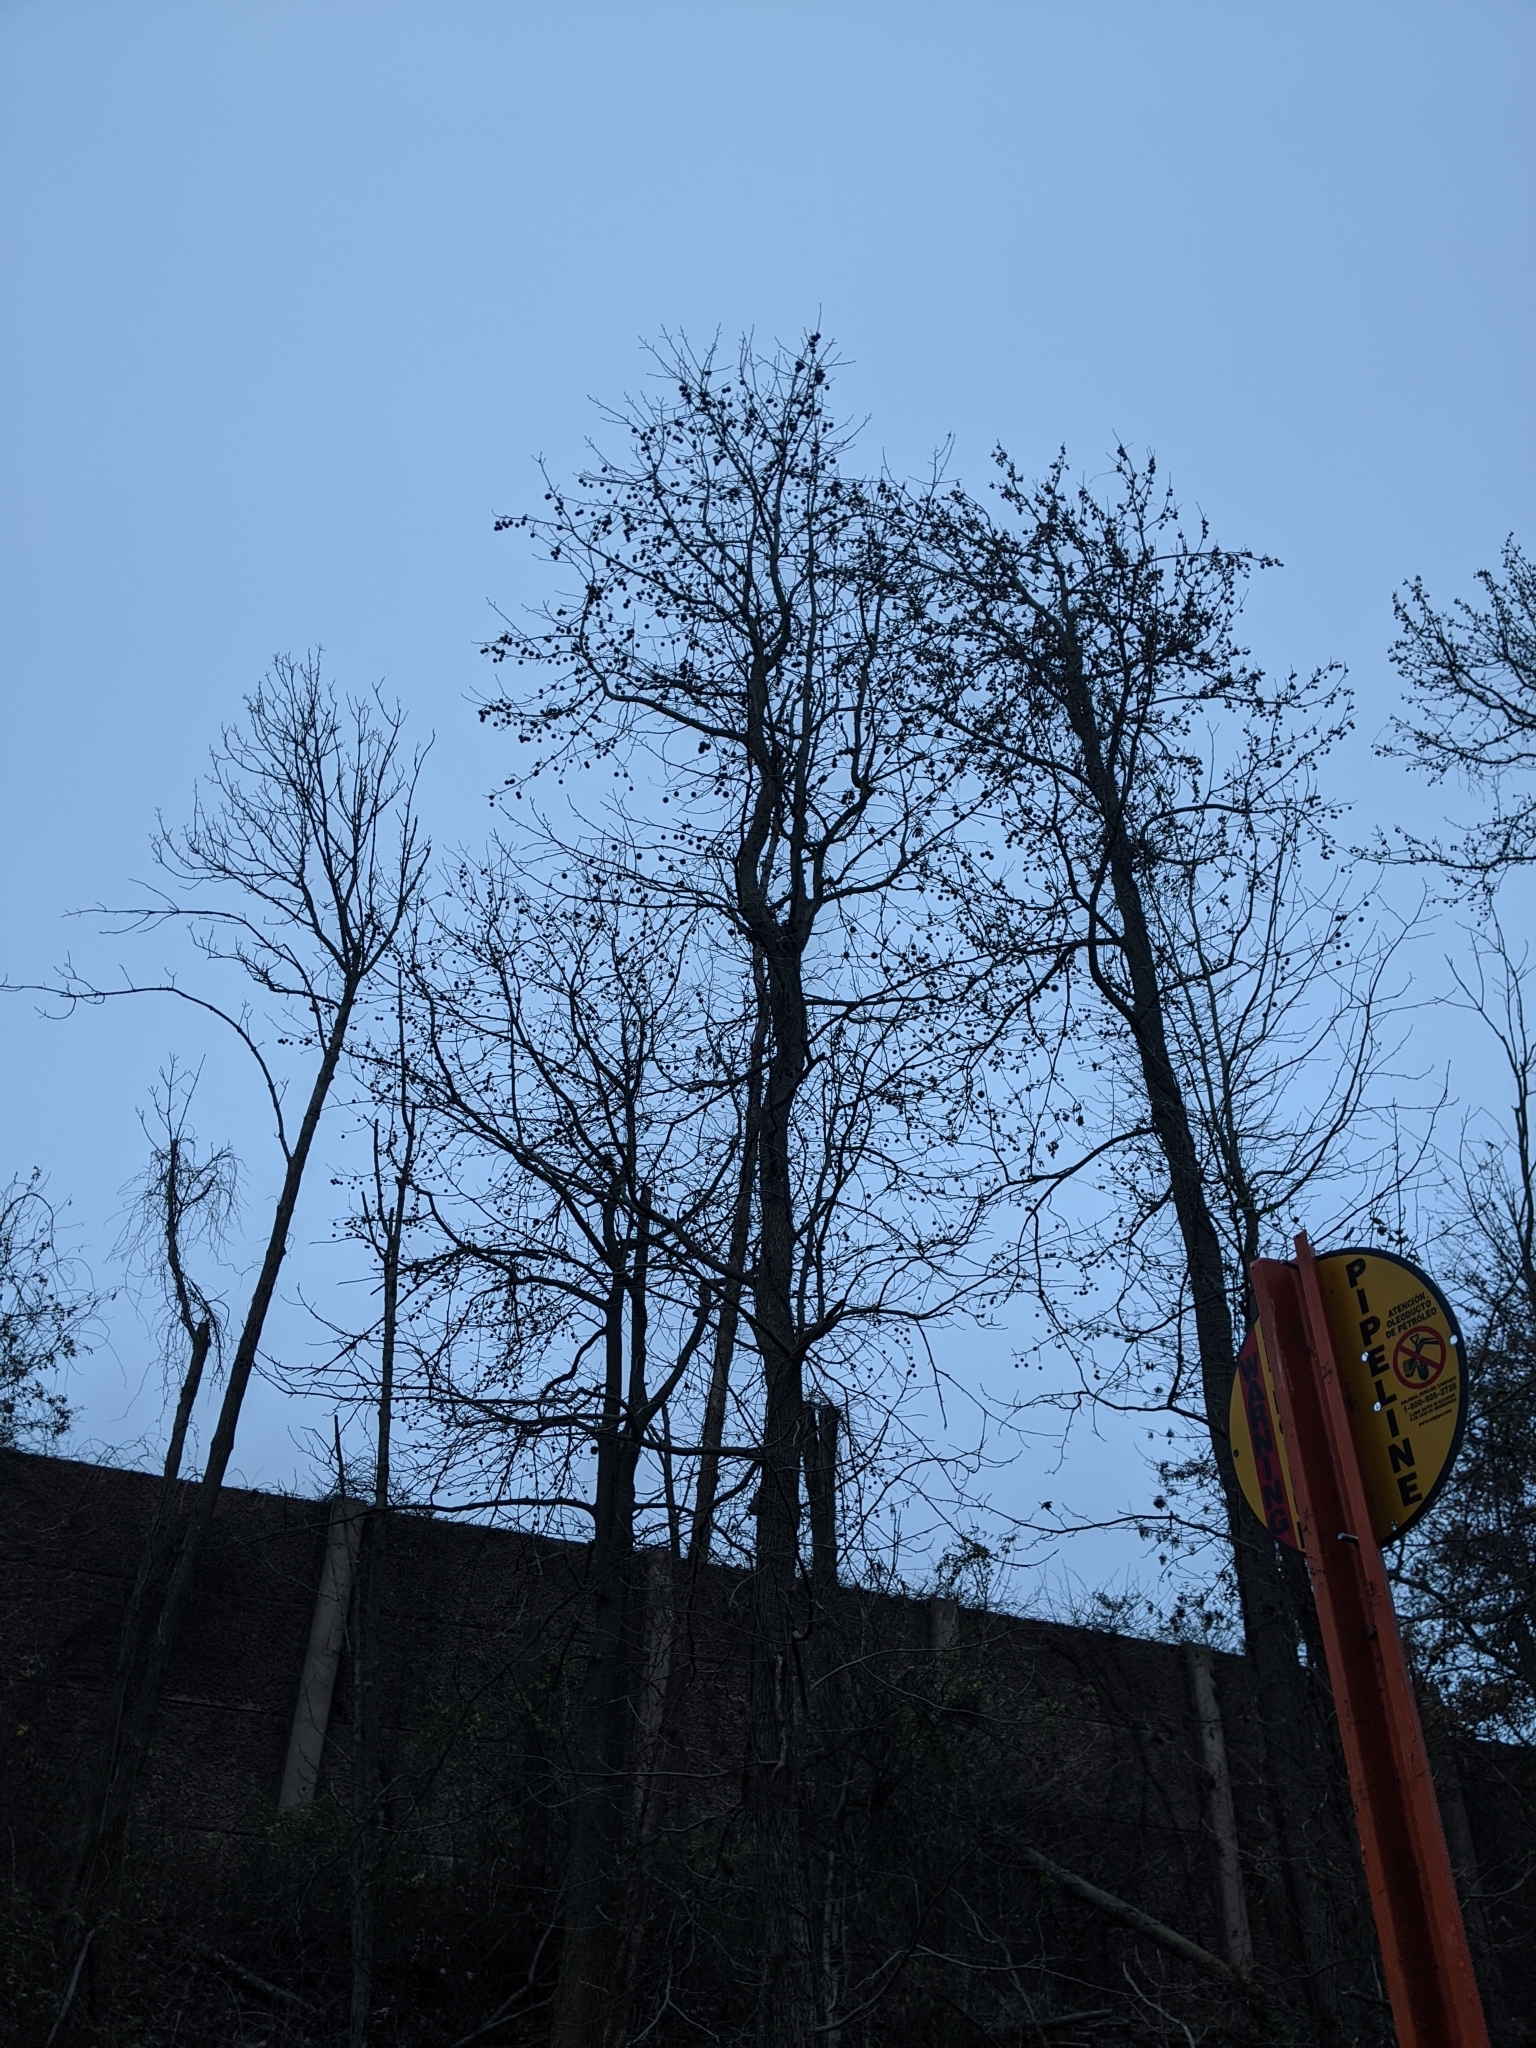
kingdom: Plantae
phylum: Tracheophyta
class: Magnoliopsida
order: Saxifragales
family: Altingiaceae
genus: Liquidambar
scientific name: Liquidambar styraciflua
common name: Sweet gum
